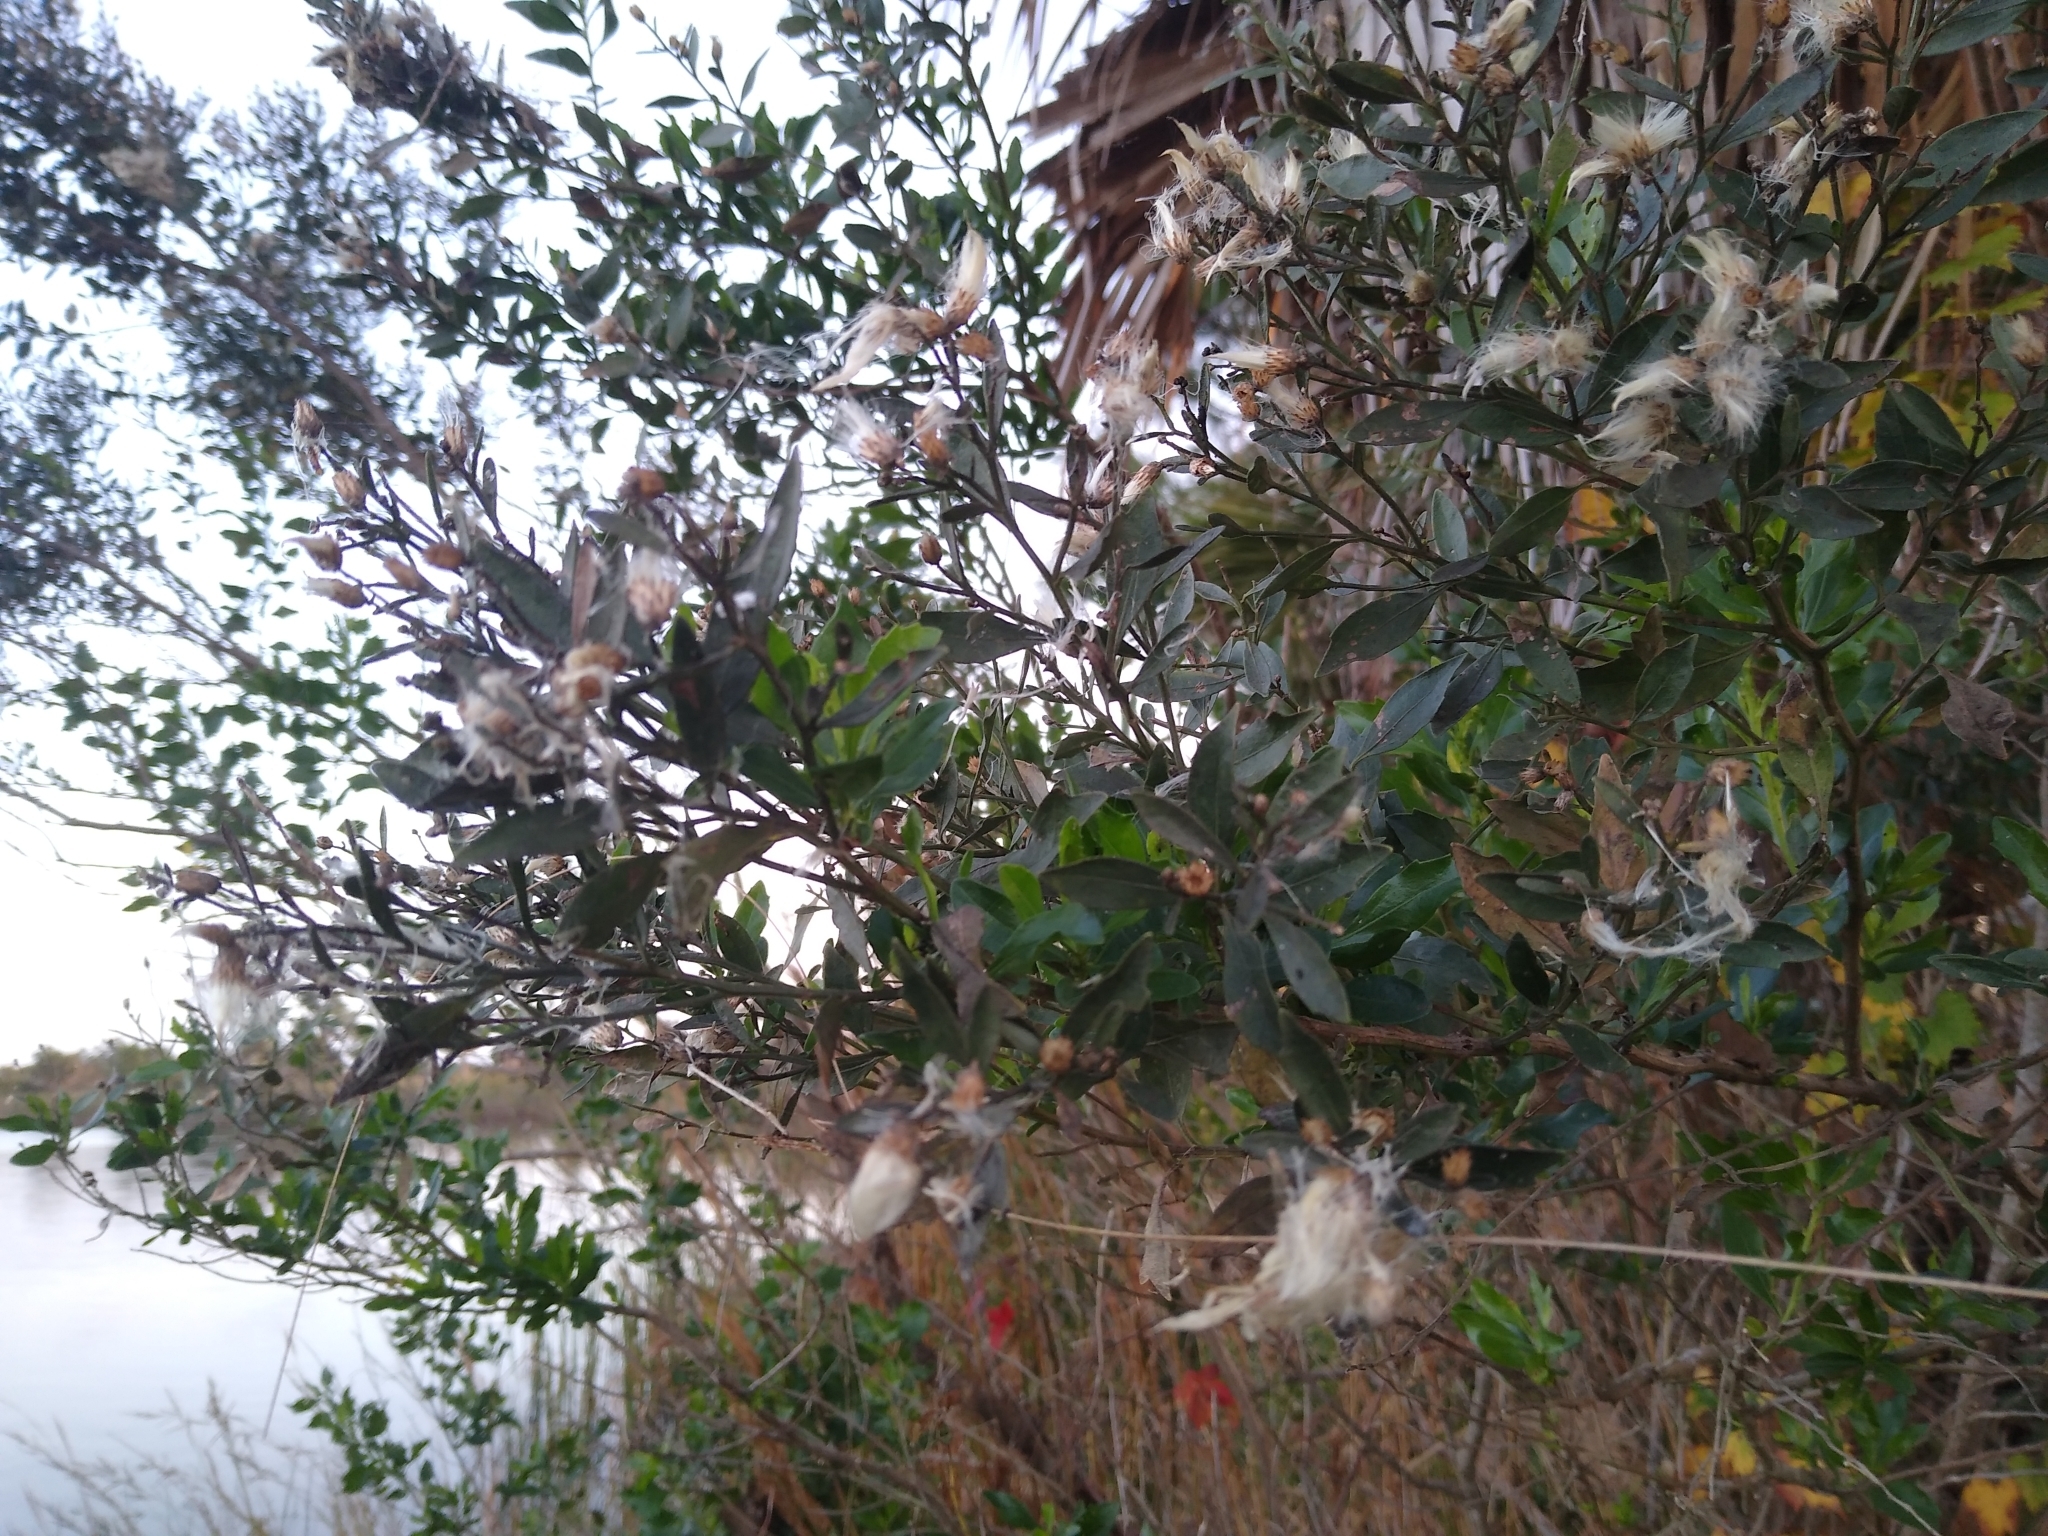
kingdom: Plantae
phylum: Tracheophyta
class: Magnoliopsida
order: Asterales
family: Asteraceae
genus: Baccharis
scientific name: Baccharis halimifolia
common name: Eastern baccharis
